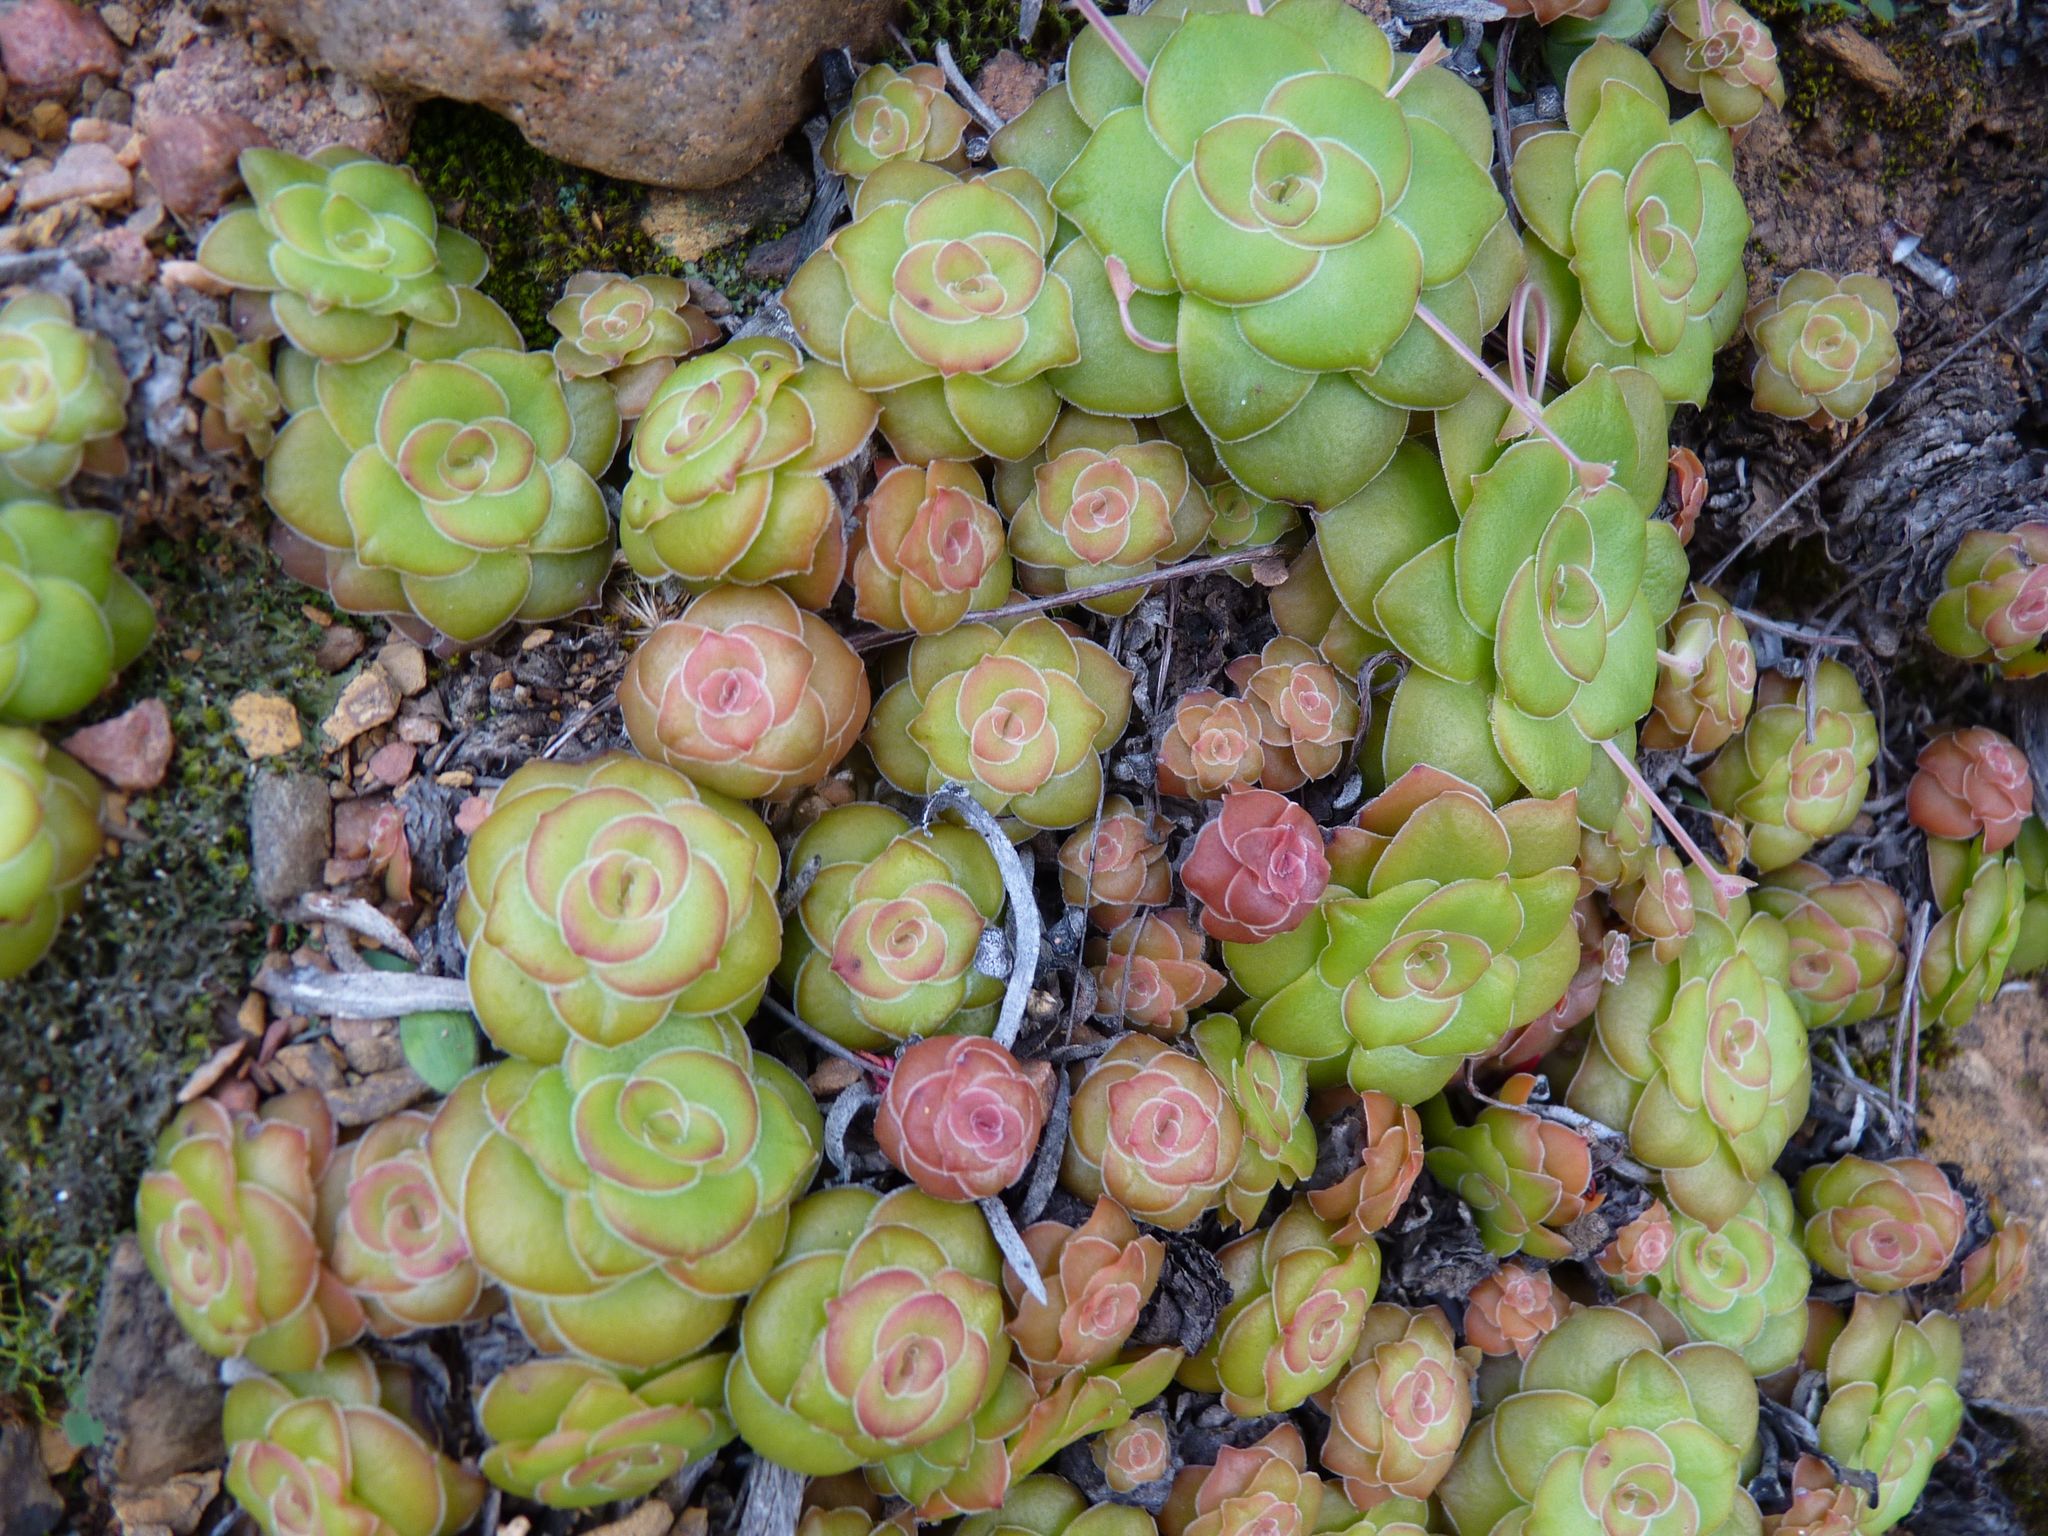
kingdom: Plantae
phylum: Tracheophyta
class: Magnoliopsida
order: Saxifragales
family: Crassulaceae
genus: Crassula
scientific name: Crassula orbicularis
